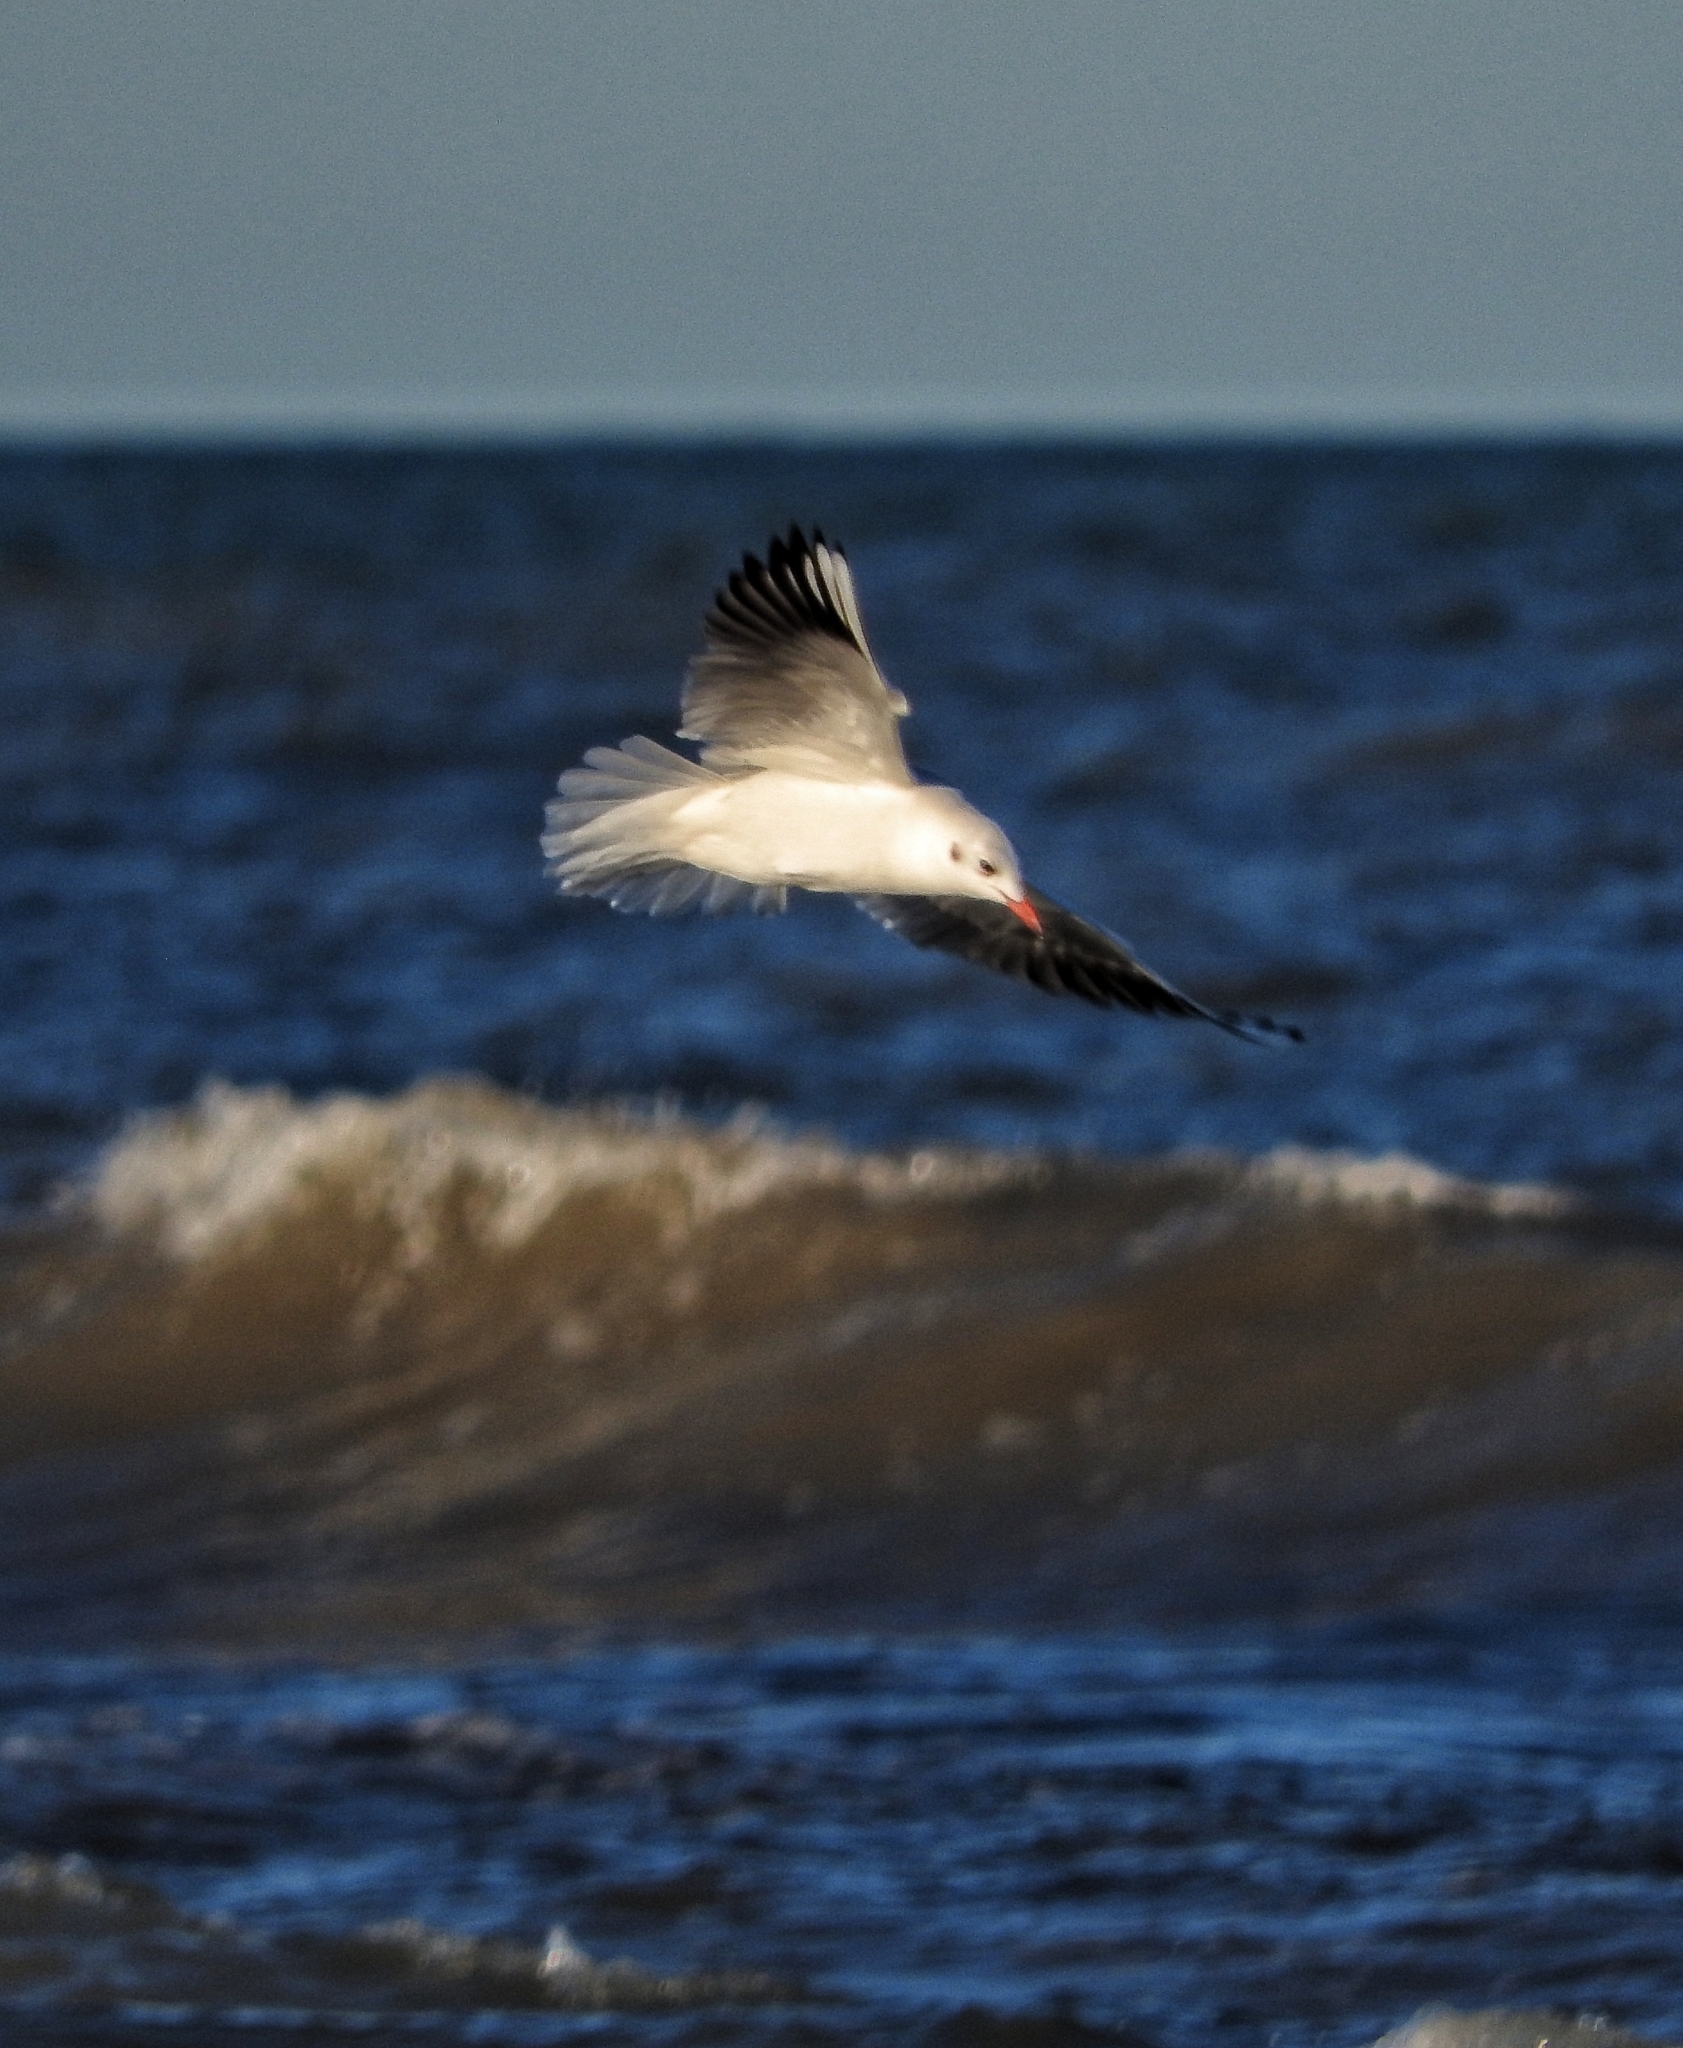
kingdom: Animalia
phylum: Chordata
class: Aves
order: Charadriiformes
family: Laridae
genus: Chroicocephalus
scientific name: Chroicocephalus ridibundus
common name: Black-headed gull
